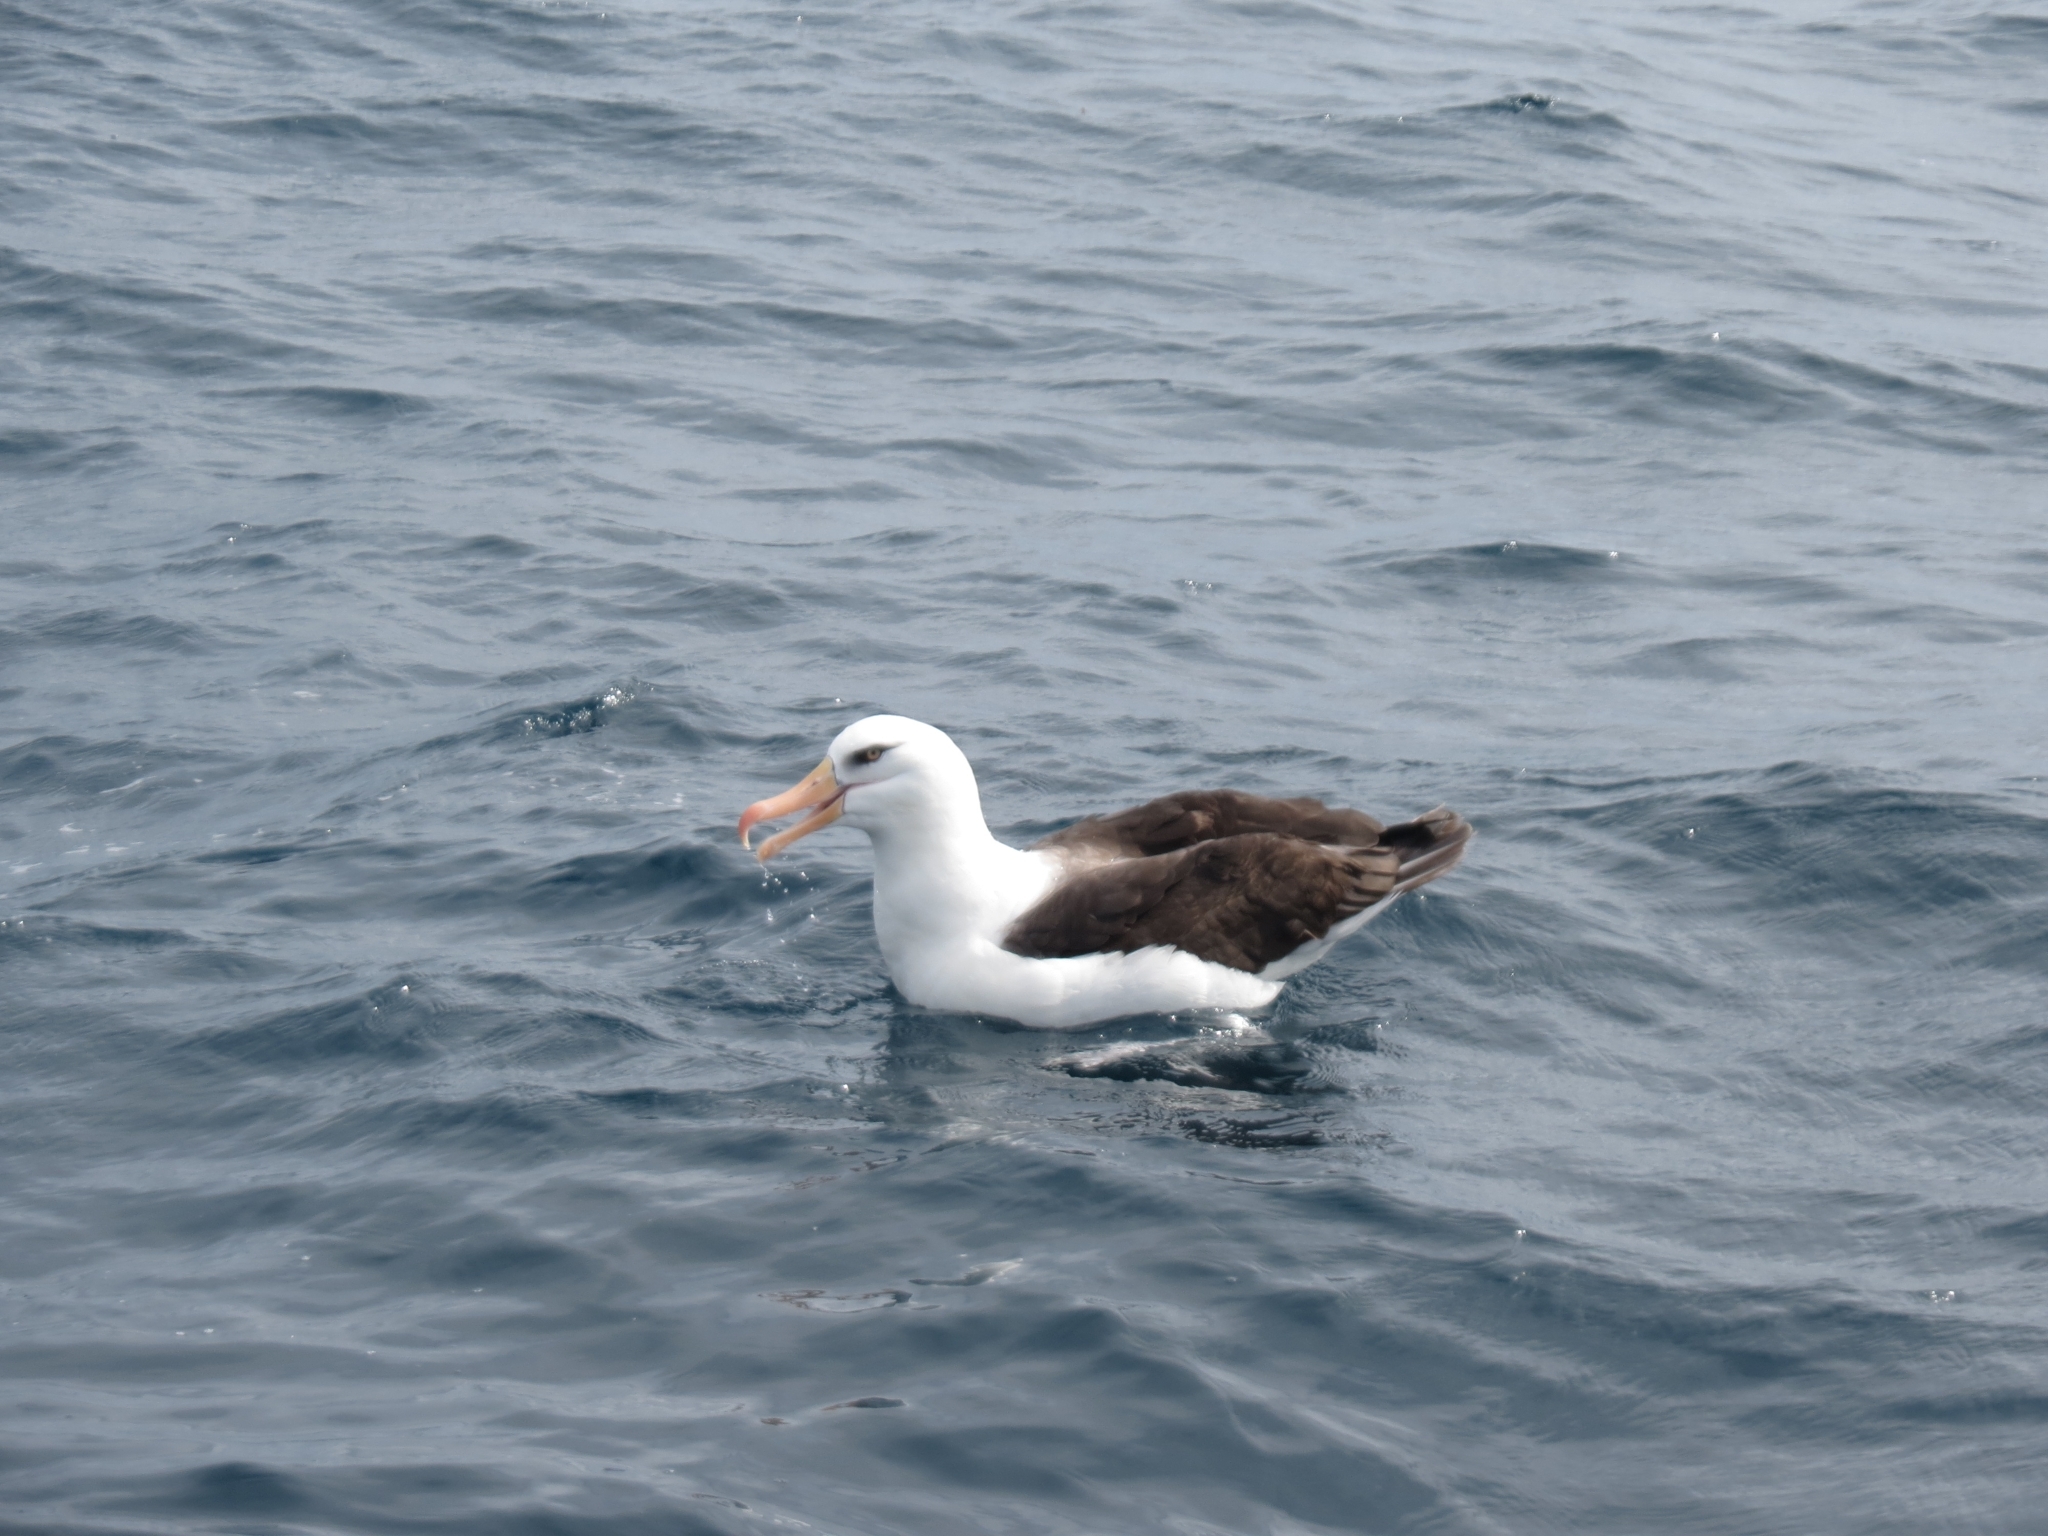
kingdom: Animalia
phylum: Chordata
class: Aves
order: Procellariiformes
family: Diomedeidae
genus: Thalassarche
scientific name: Thalassarche impavida
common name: Campbell albatross
